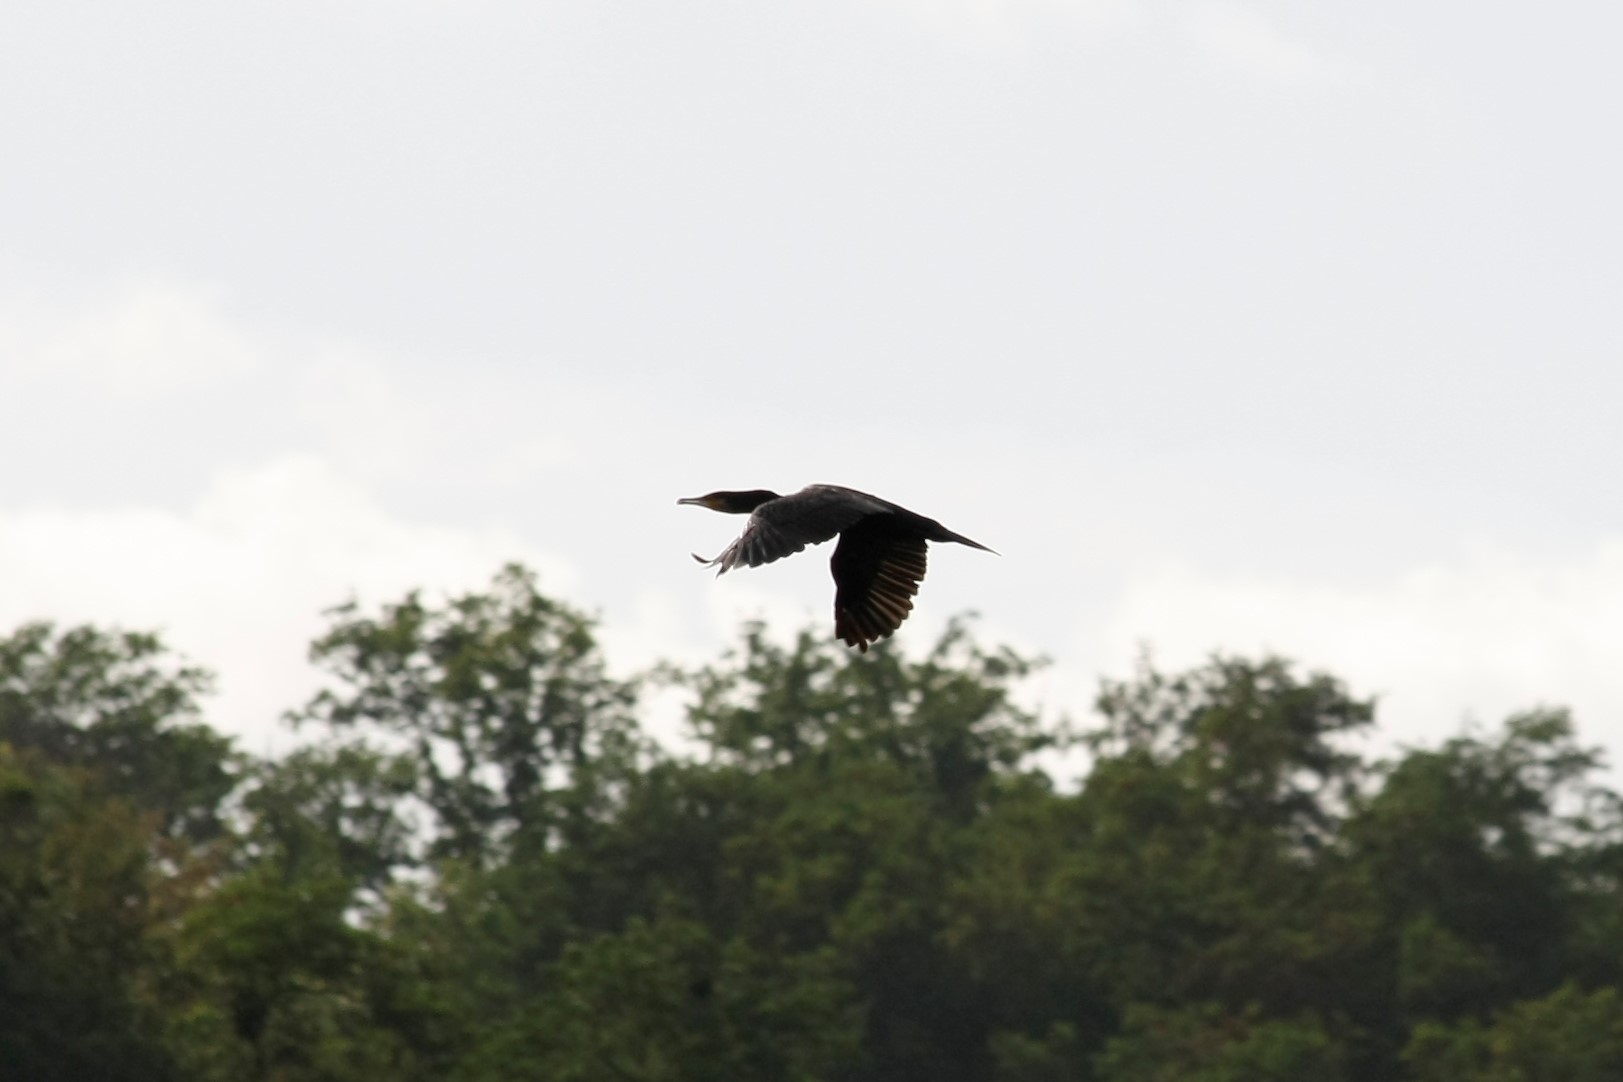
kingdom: Animalia
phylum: Chordata
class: Aves
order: Suliformes
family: Phalacrocoracidae
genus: Phalacrocorax
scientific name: Phalacrocorax carbo
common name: Great cormorant
